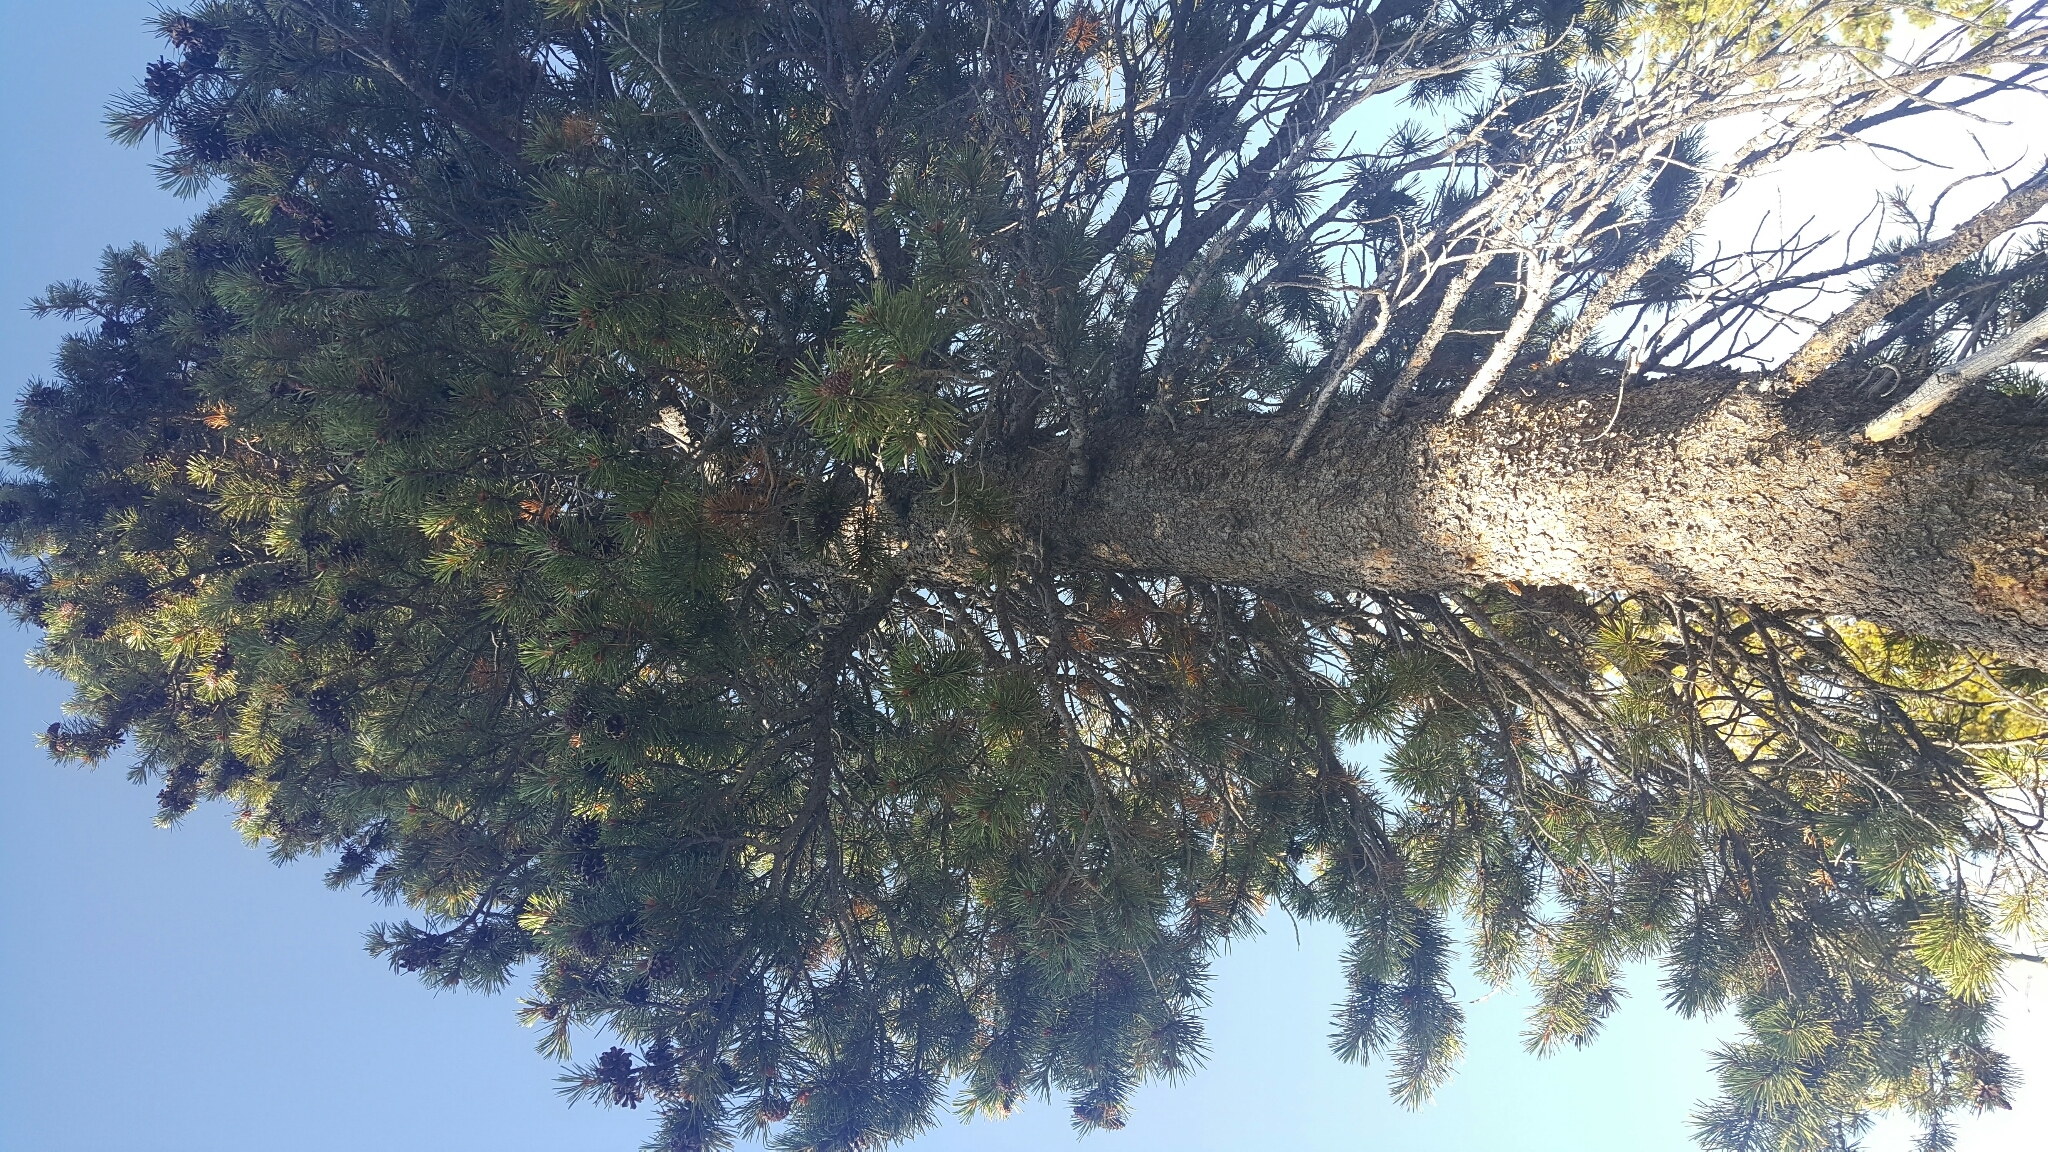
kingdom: Plantae
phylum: Tracheophyta
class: Pinopsida
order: Pinales
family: Pinaceae
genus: Pinus
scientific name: Pinus contorta
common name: Lodgepole pine
